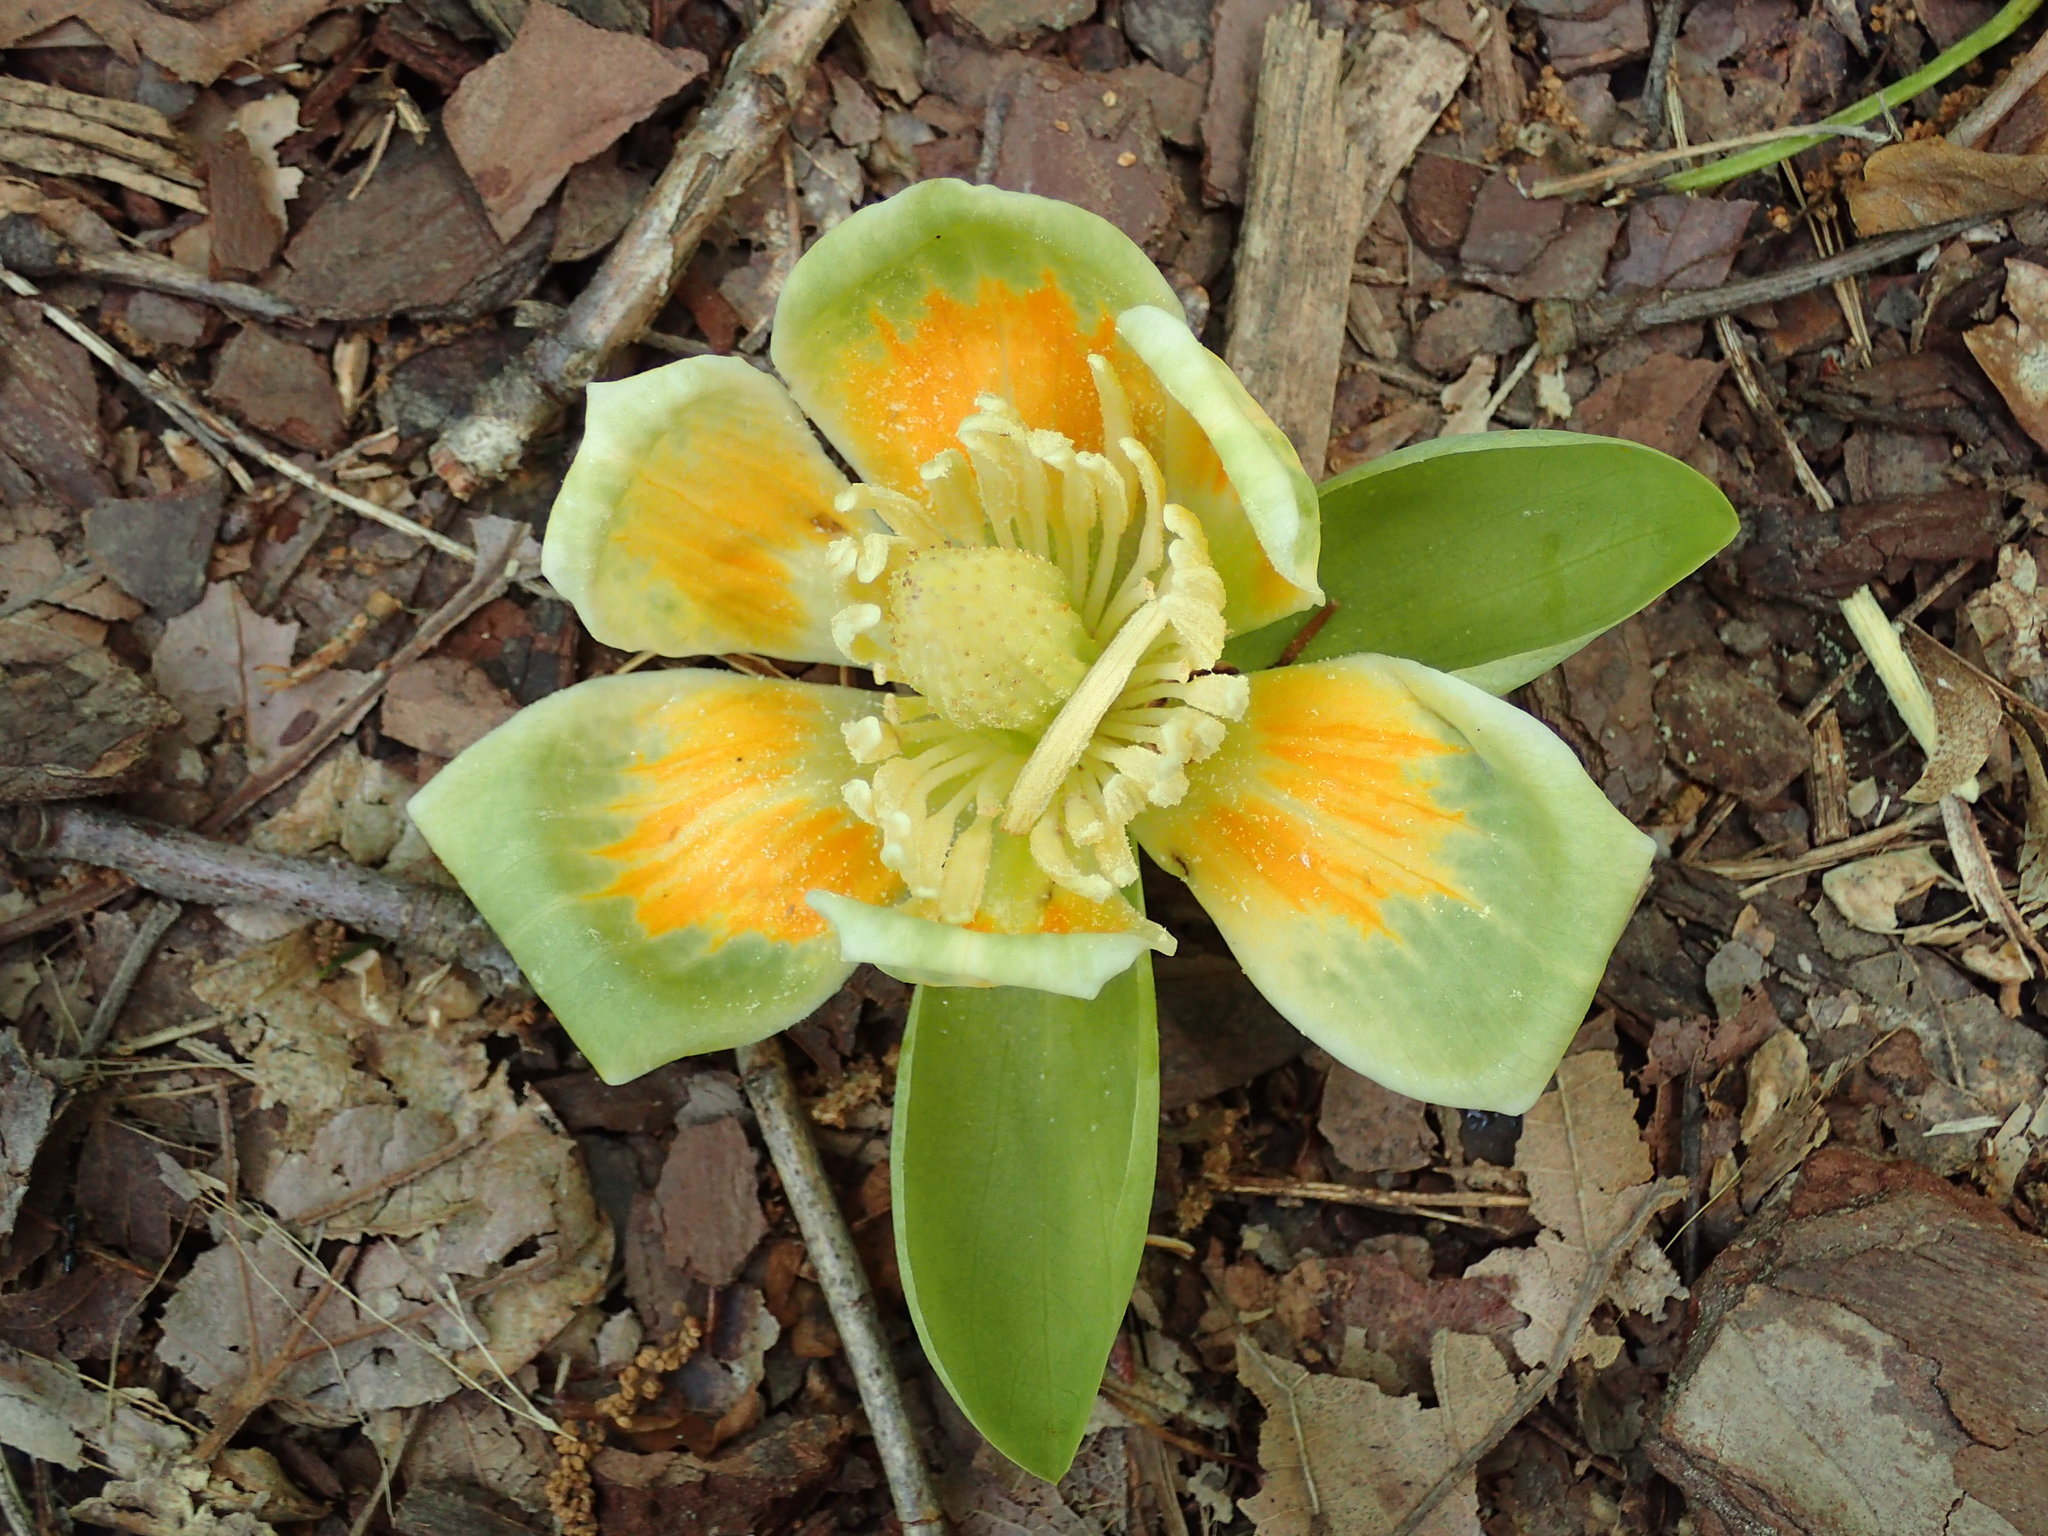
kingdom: Plantae
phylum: Tracheophyta
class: Magnoliopsida
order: Magnoliales
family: Magnoliaceae
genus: Liriodendron
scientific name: Liriodendron tulipifera
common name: Tulip tree
